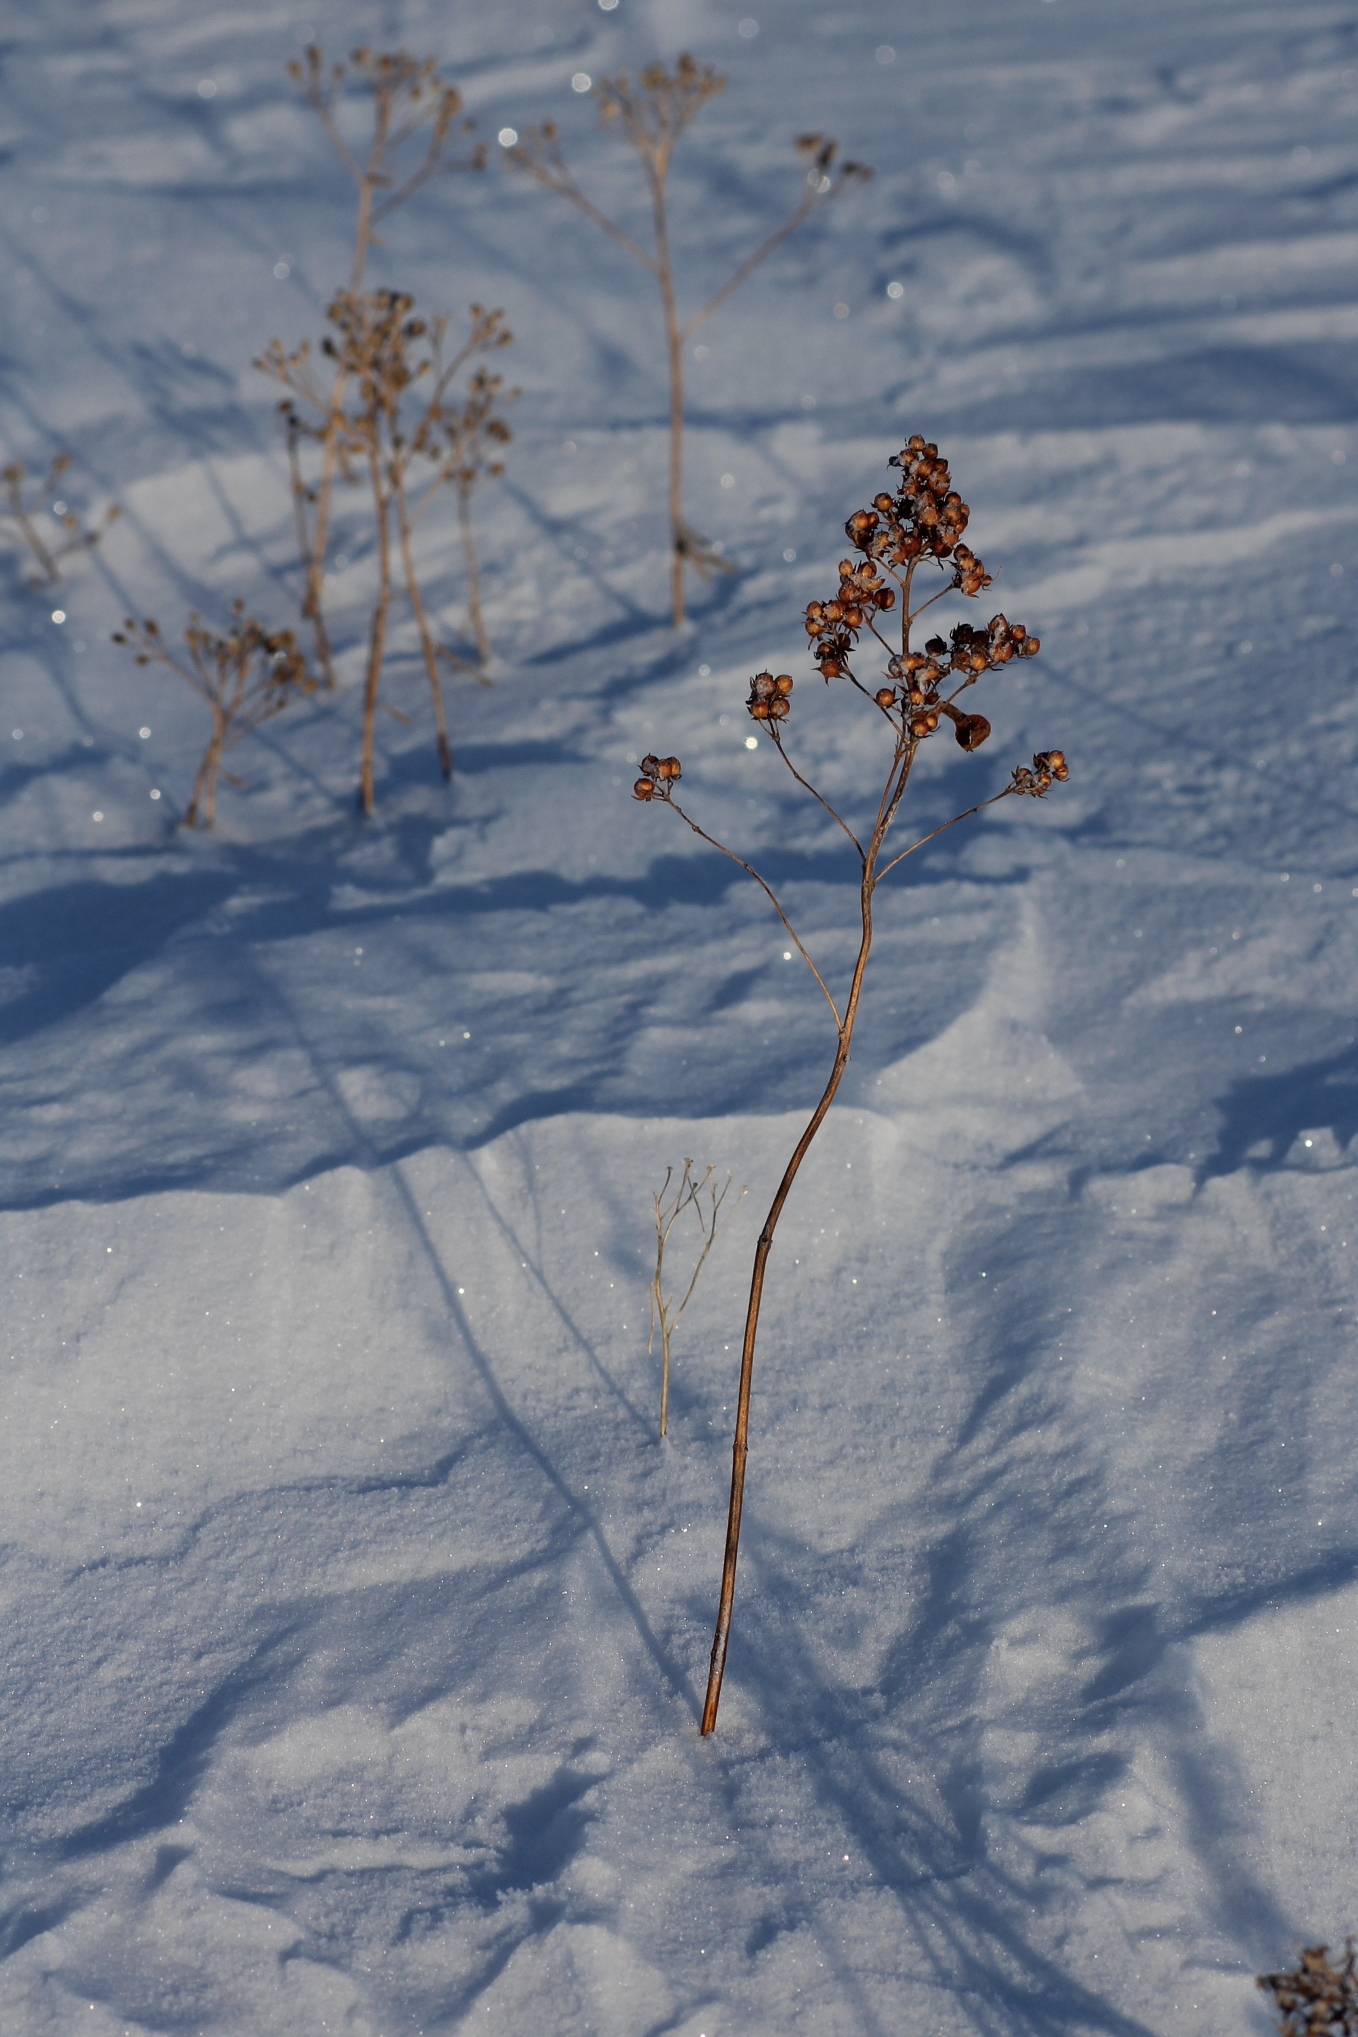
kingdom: Plantae
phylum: Tracheophyta
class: Magnoliopsida
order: Ericales
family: Primulaceae
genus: Lysimachia
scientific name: Lysimachia vulgaris
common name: Yellow loosestrife
